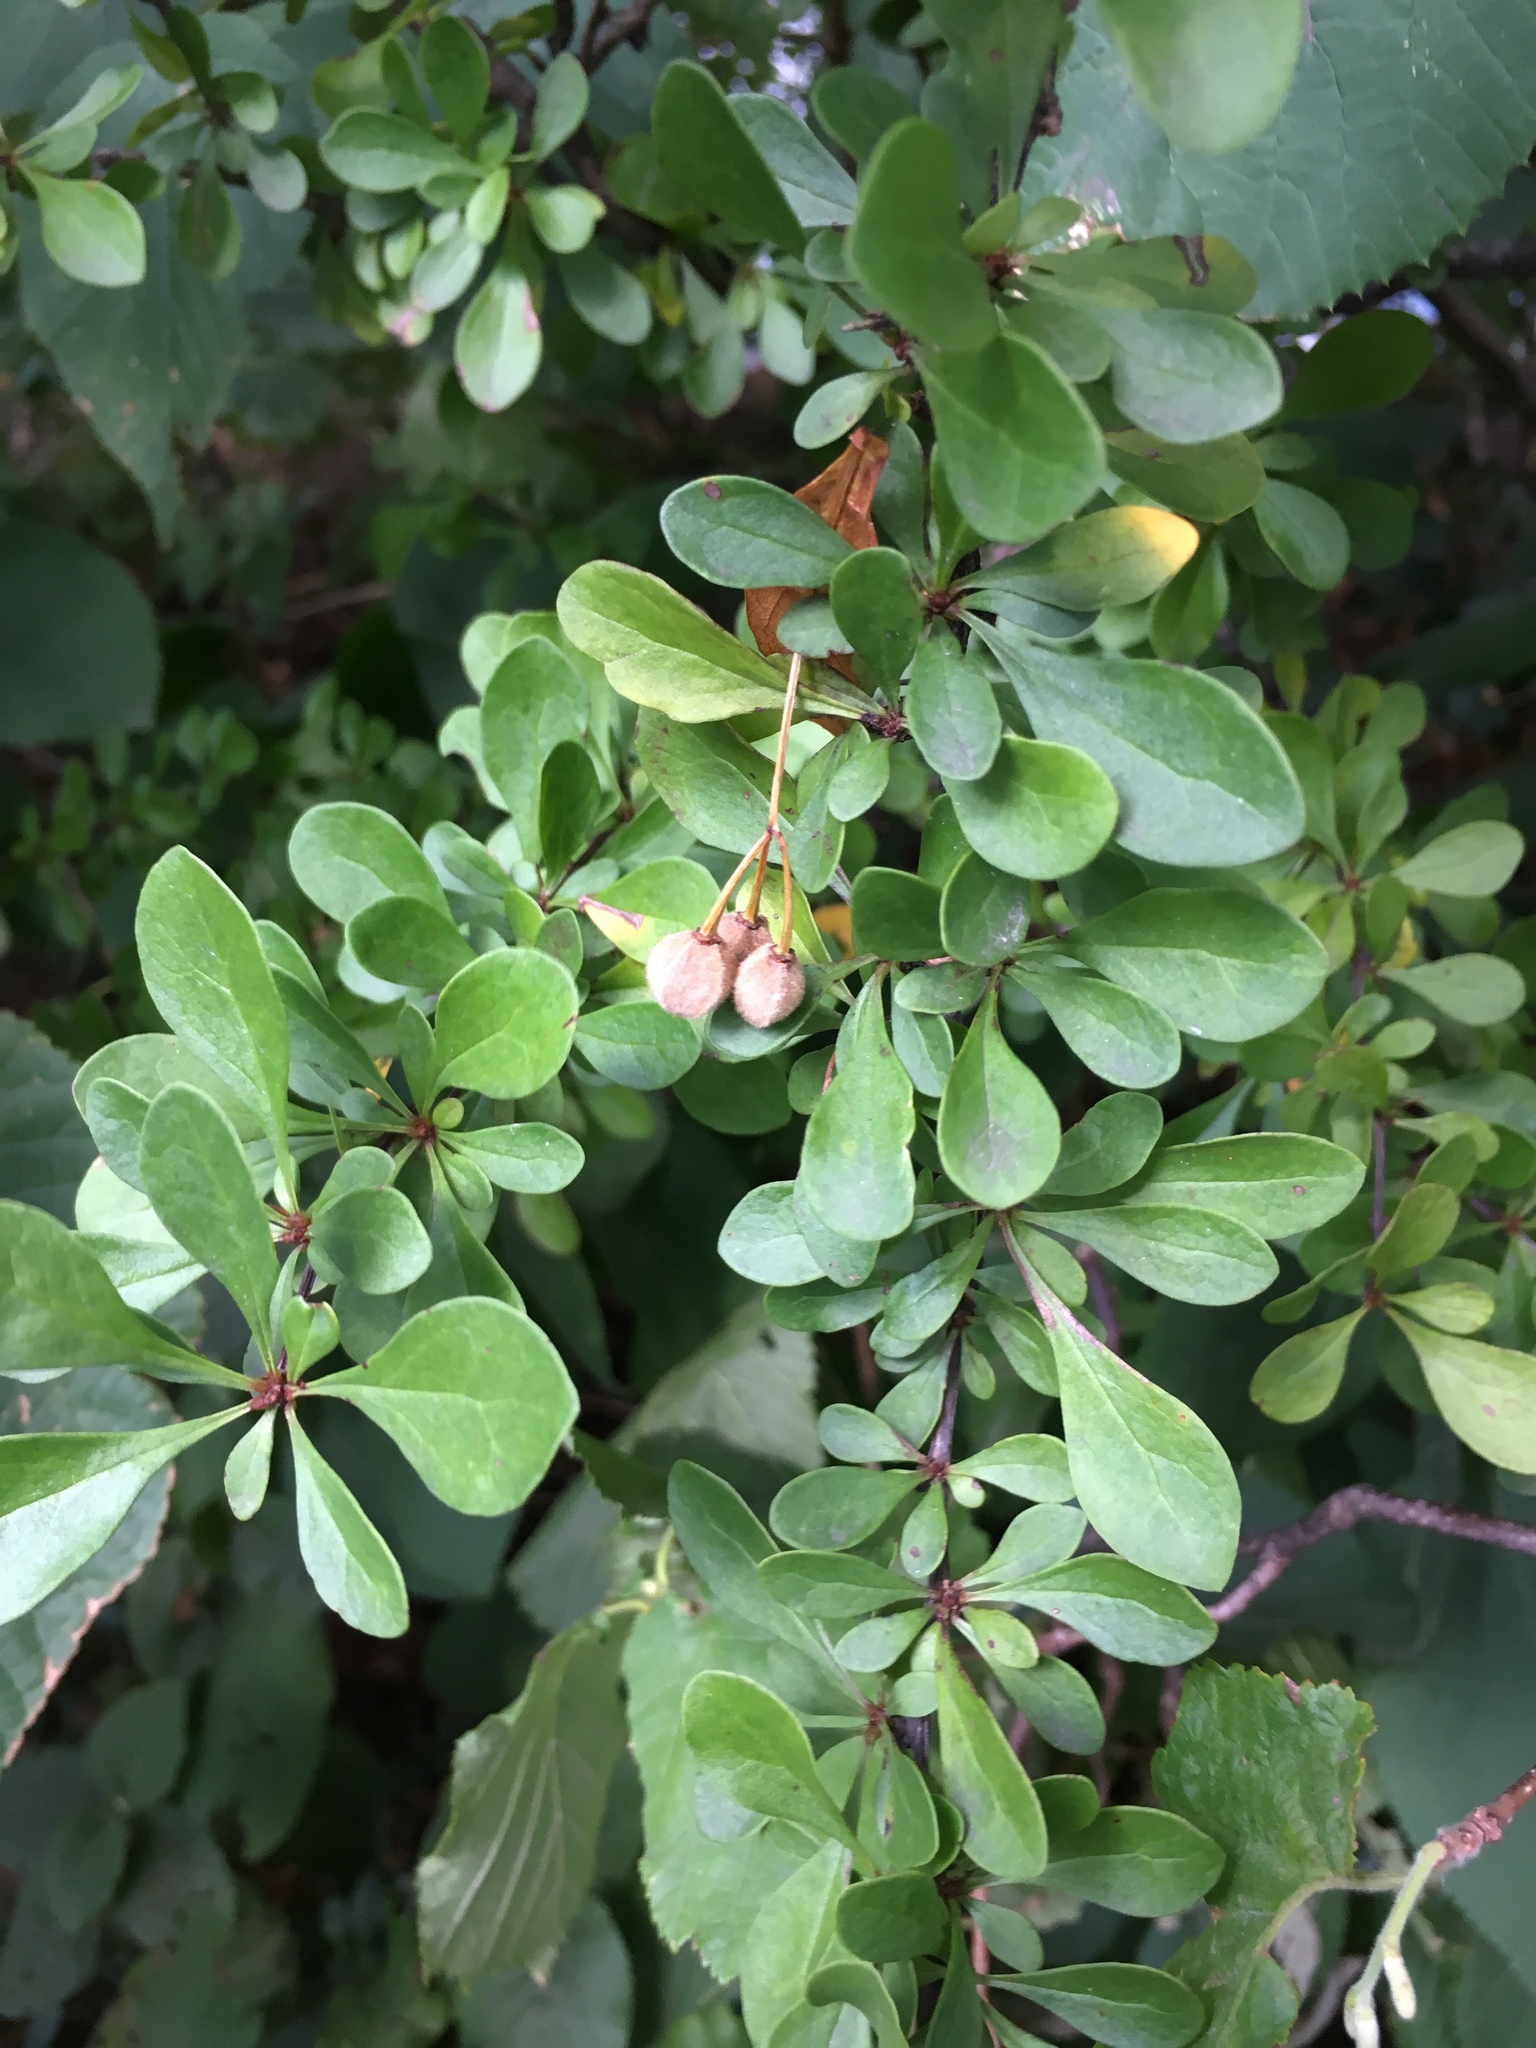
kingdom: Plantae
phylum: Tracheophyta
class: Magnoliopsida
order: Ranunculales
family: Berberidaceae
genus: Berberis
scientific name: Berberis thunbergii
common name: Japanese barberry
